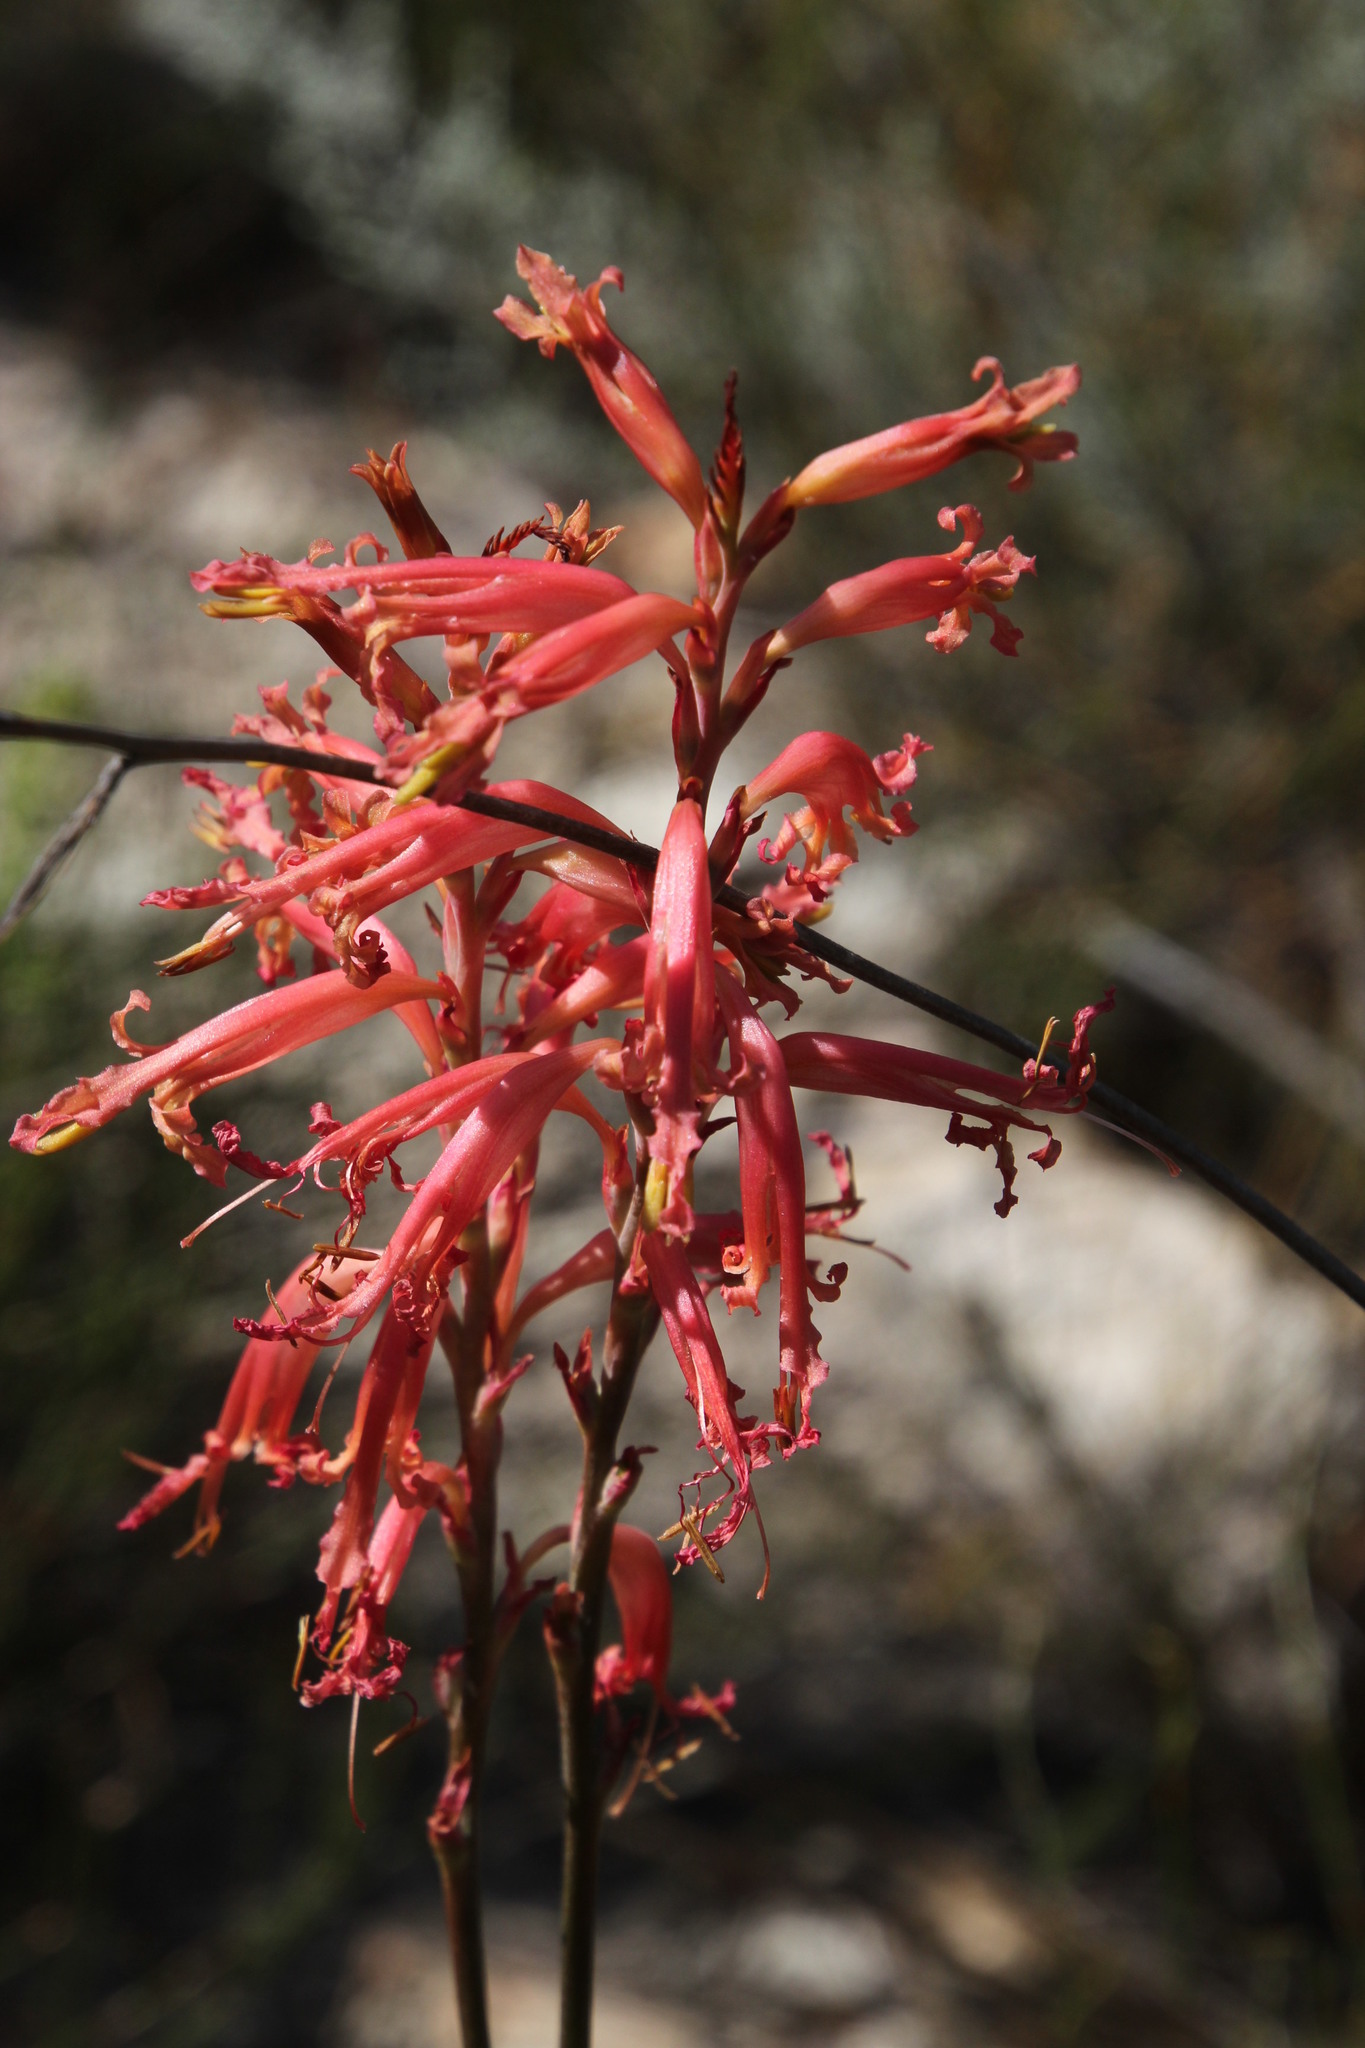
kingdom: Plantae
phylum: Tracheophyta
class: Liliopsida
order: Asparagales
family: Iridaceae
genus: Tritoniopsis
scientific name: Tritoniopsis antholyza
